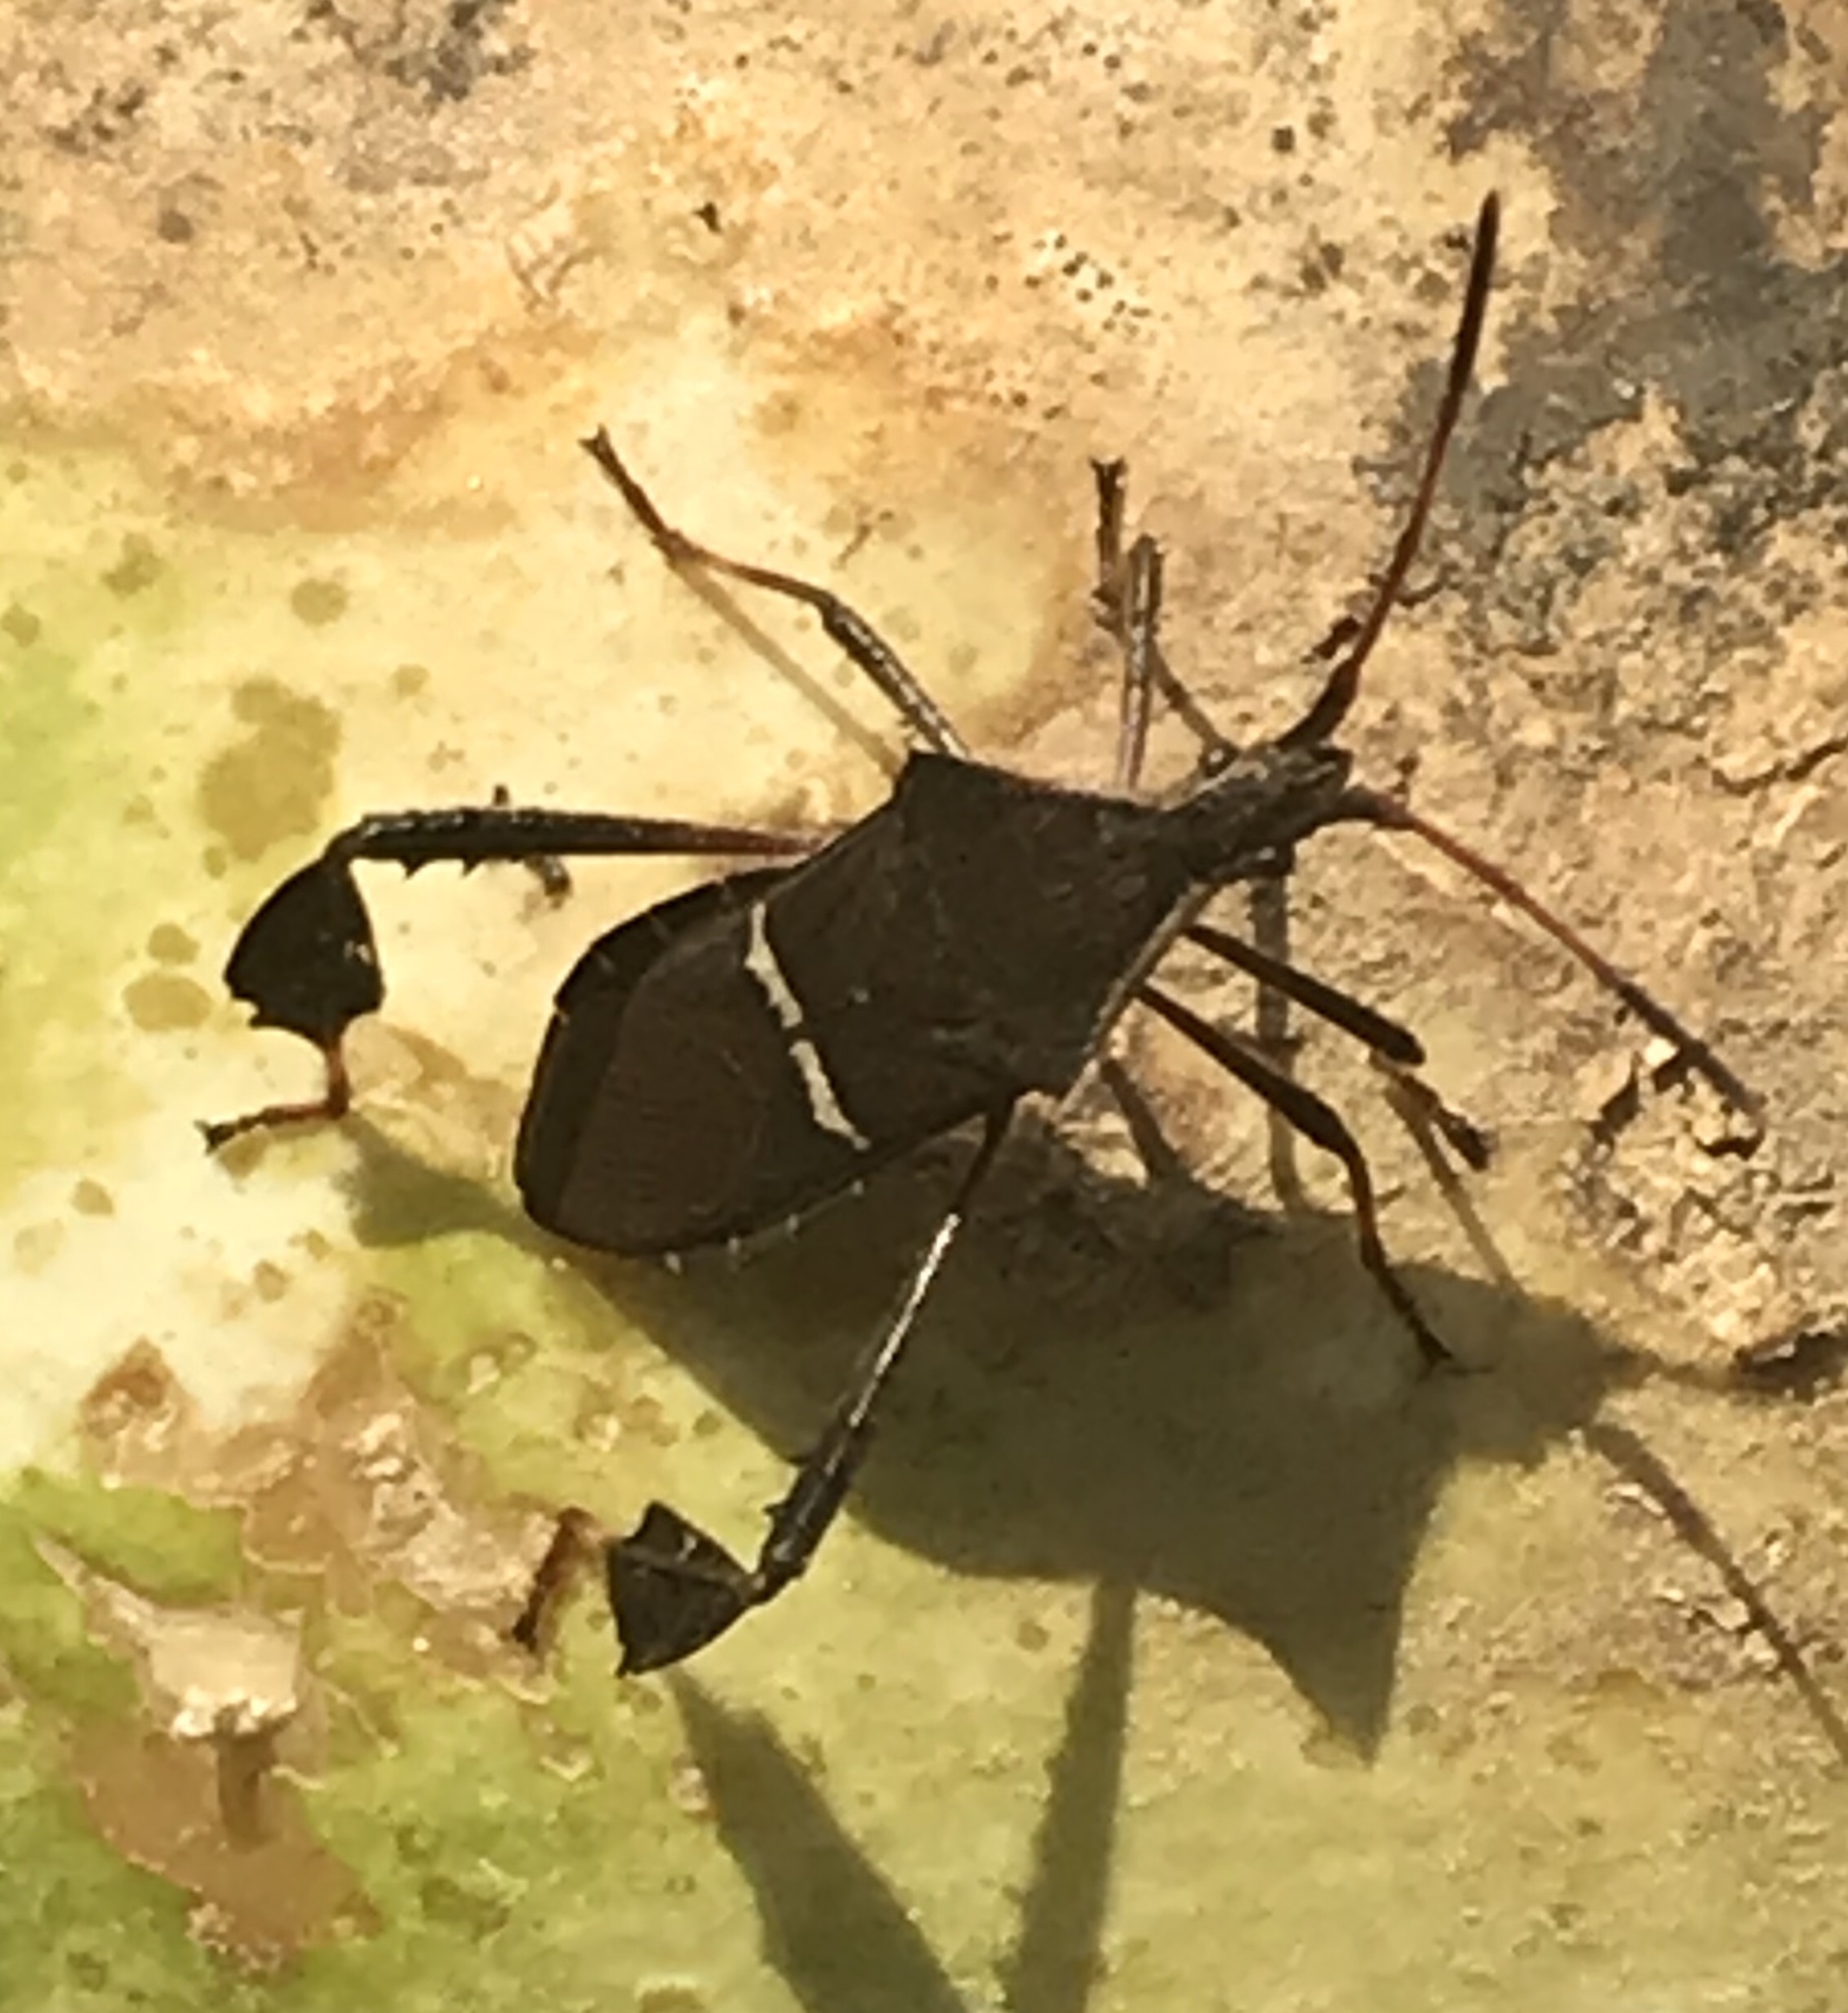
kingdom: Animalia
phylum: Arthropoda
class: Insecta
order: Hemiptera
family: Coreidae
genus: Leptoglossus
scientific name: Leptoglossus phyllopus
